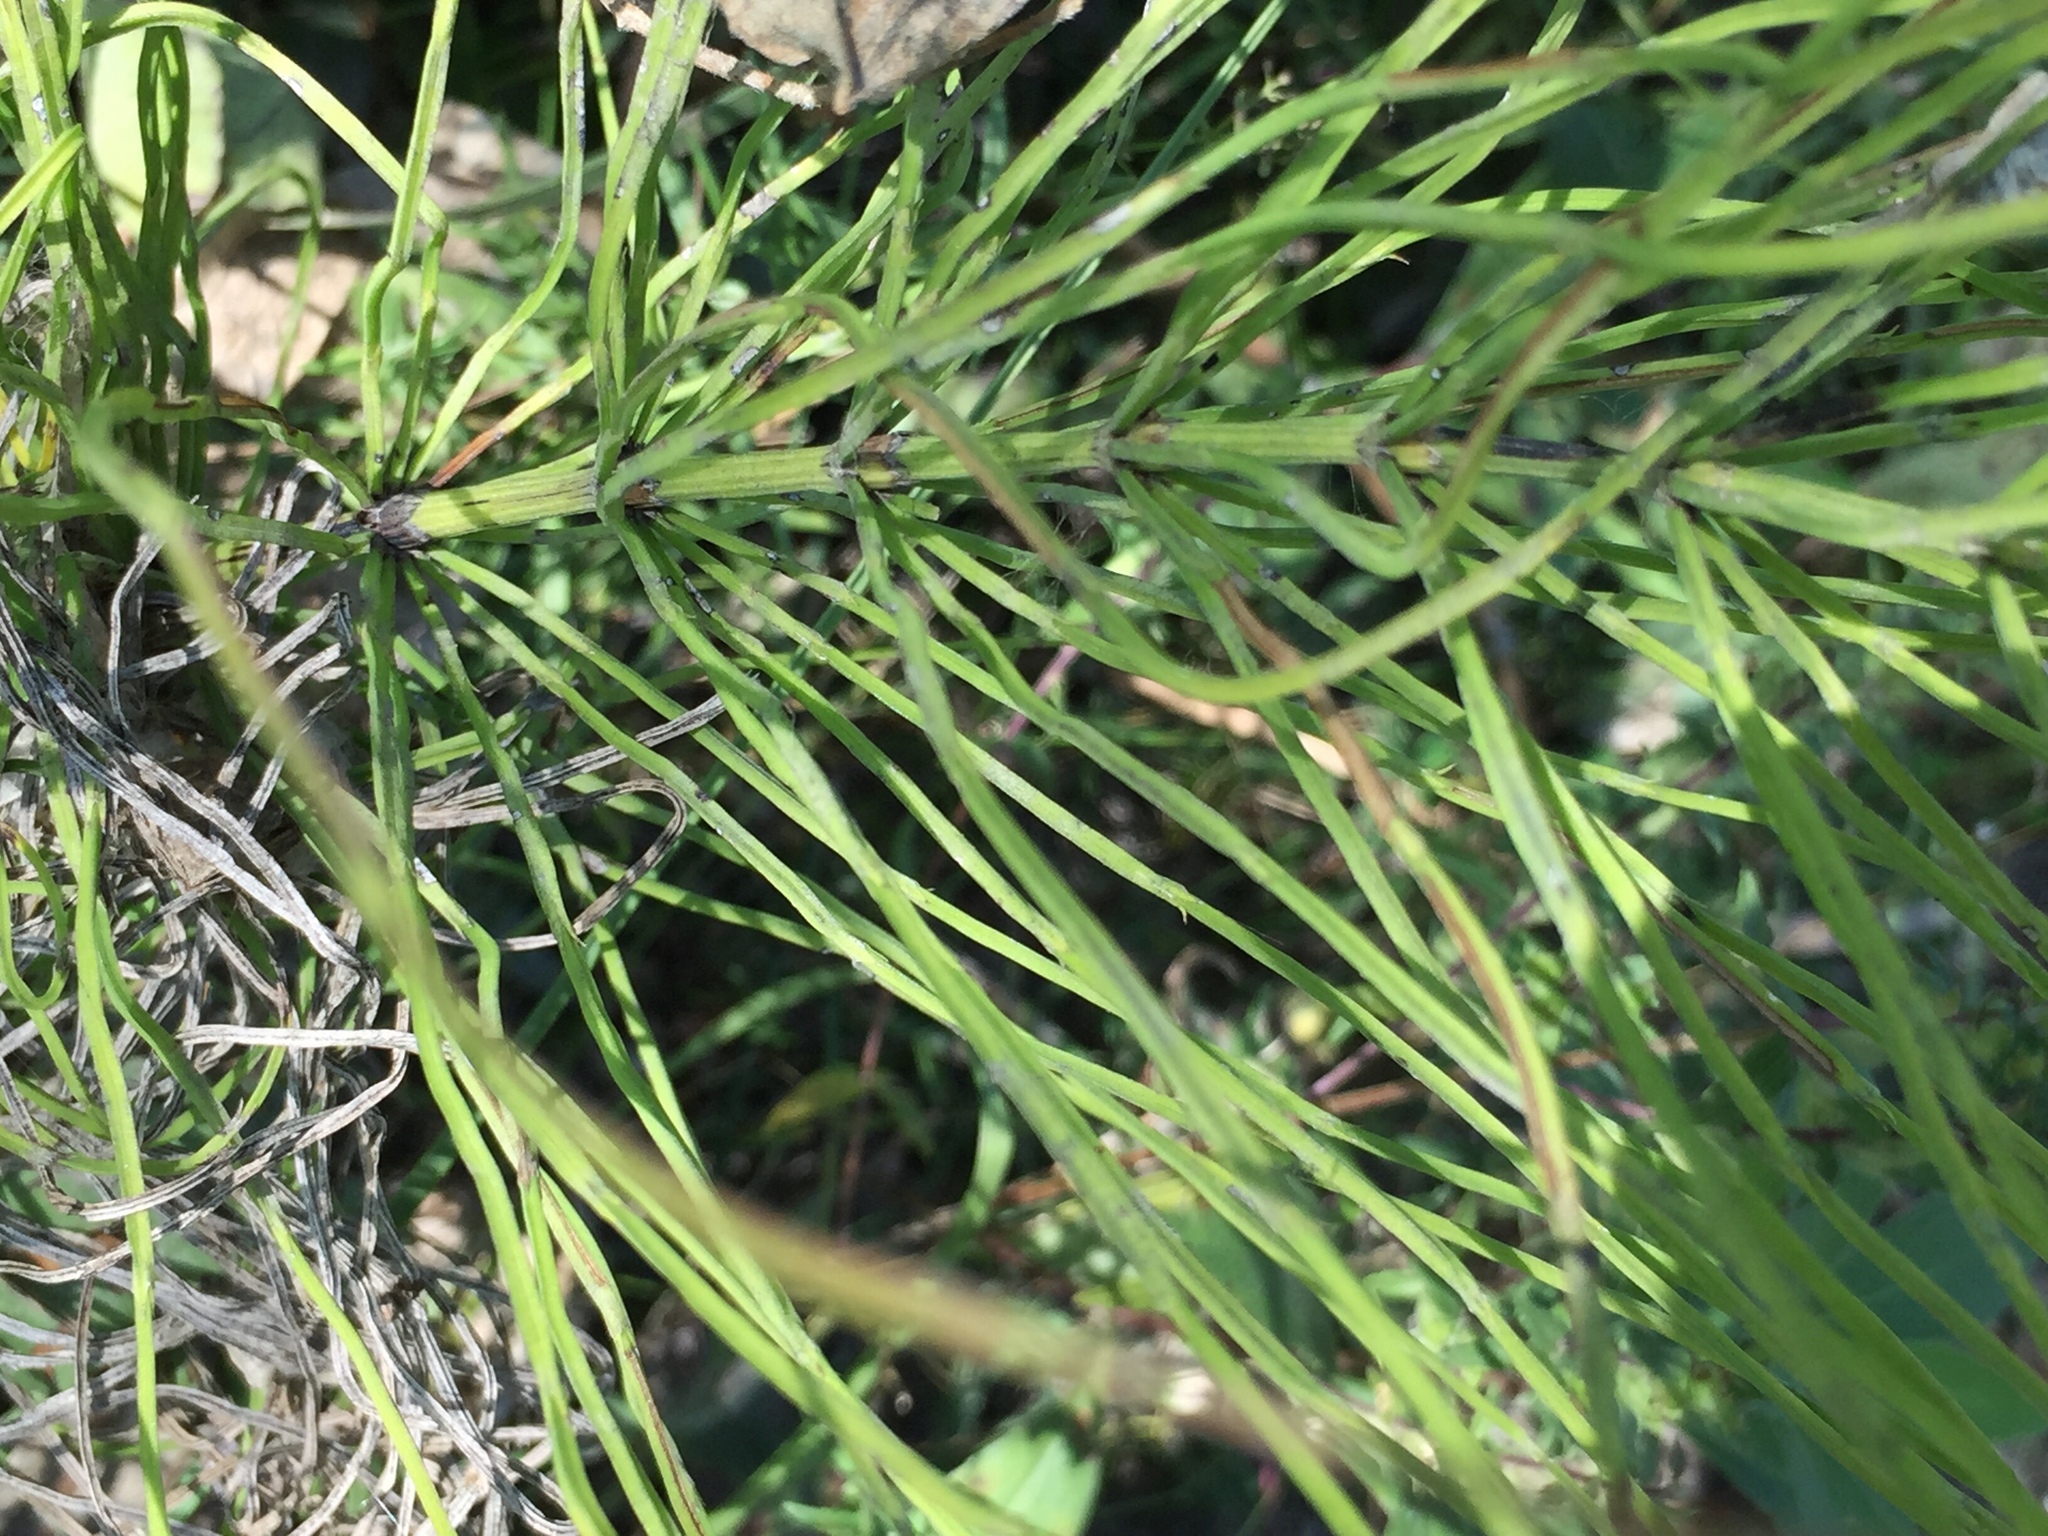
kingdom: Plantae
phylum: Tracheophyta
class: Polypodiopsida
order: Equisetales
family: Equisetaceae
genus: Equisetum
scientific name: Equisetum arvense
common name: Field horsetail
